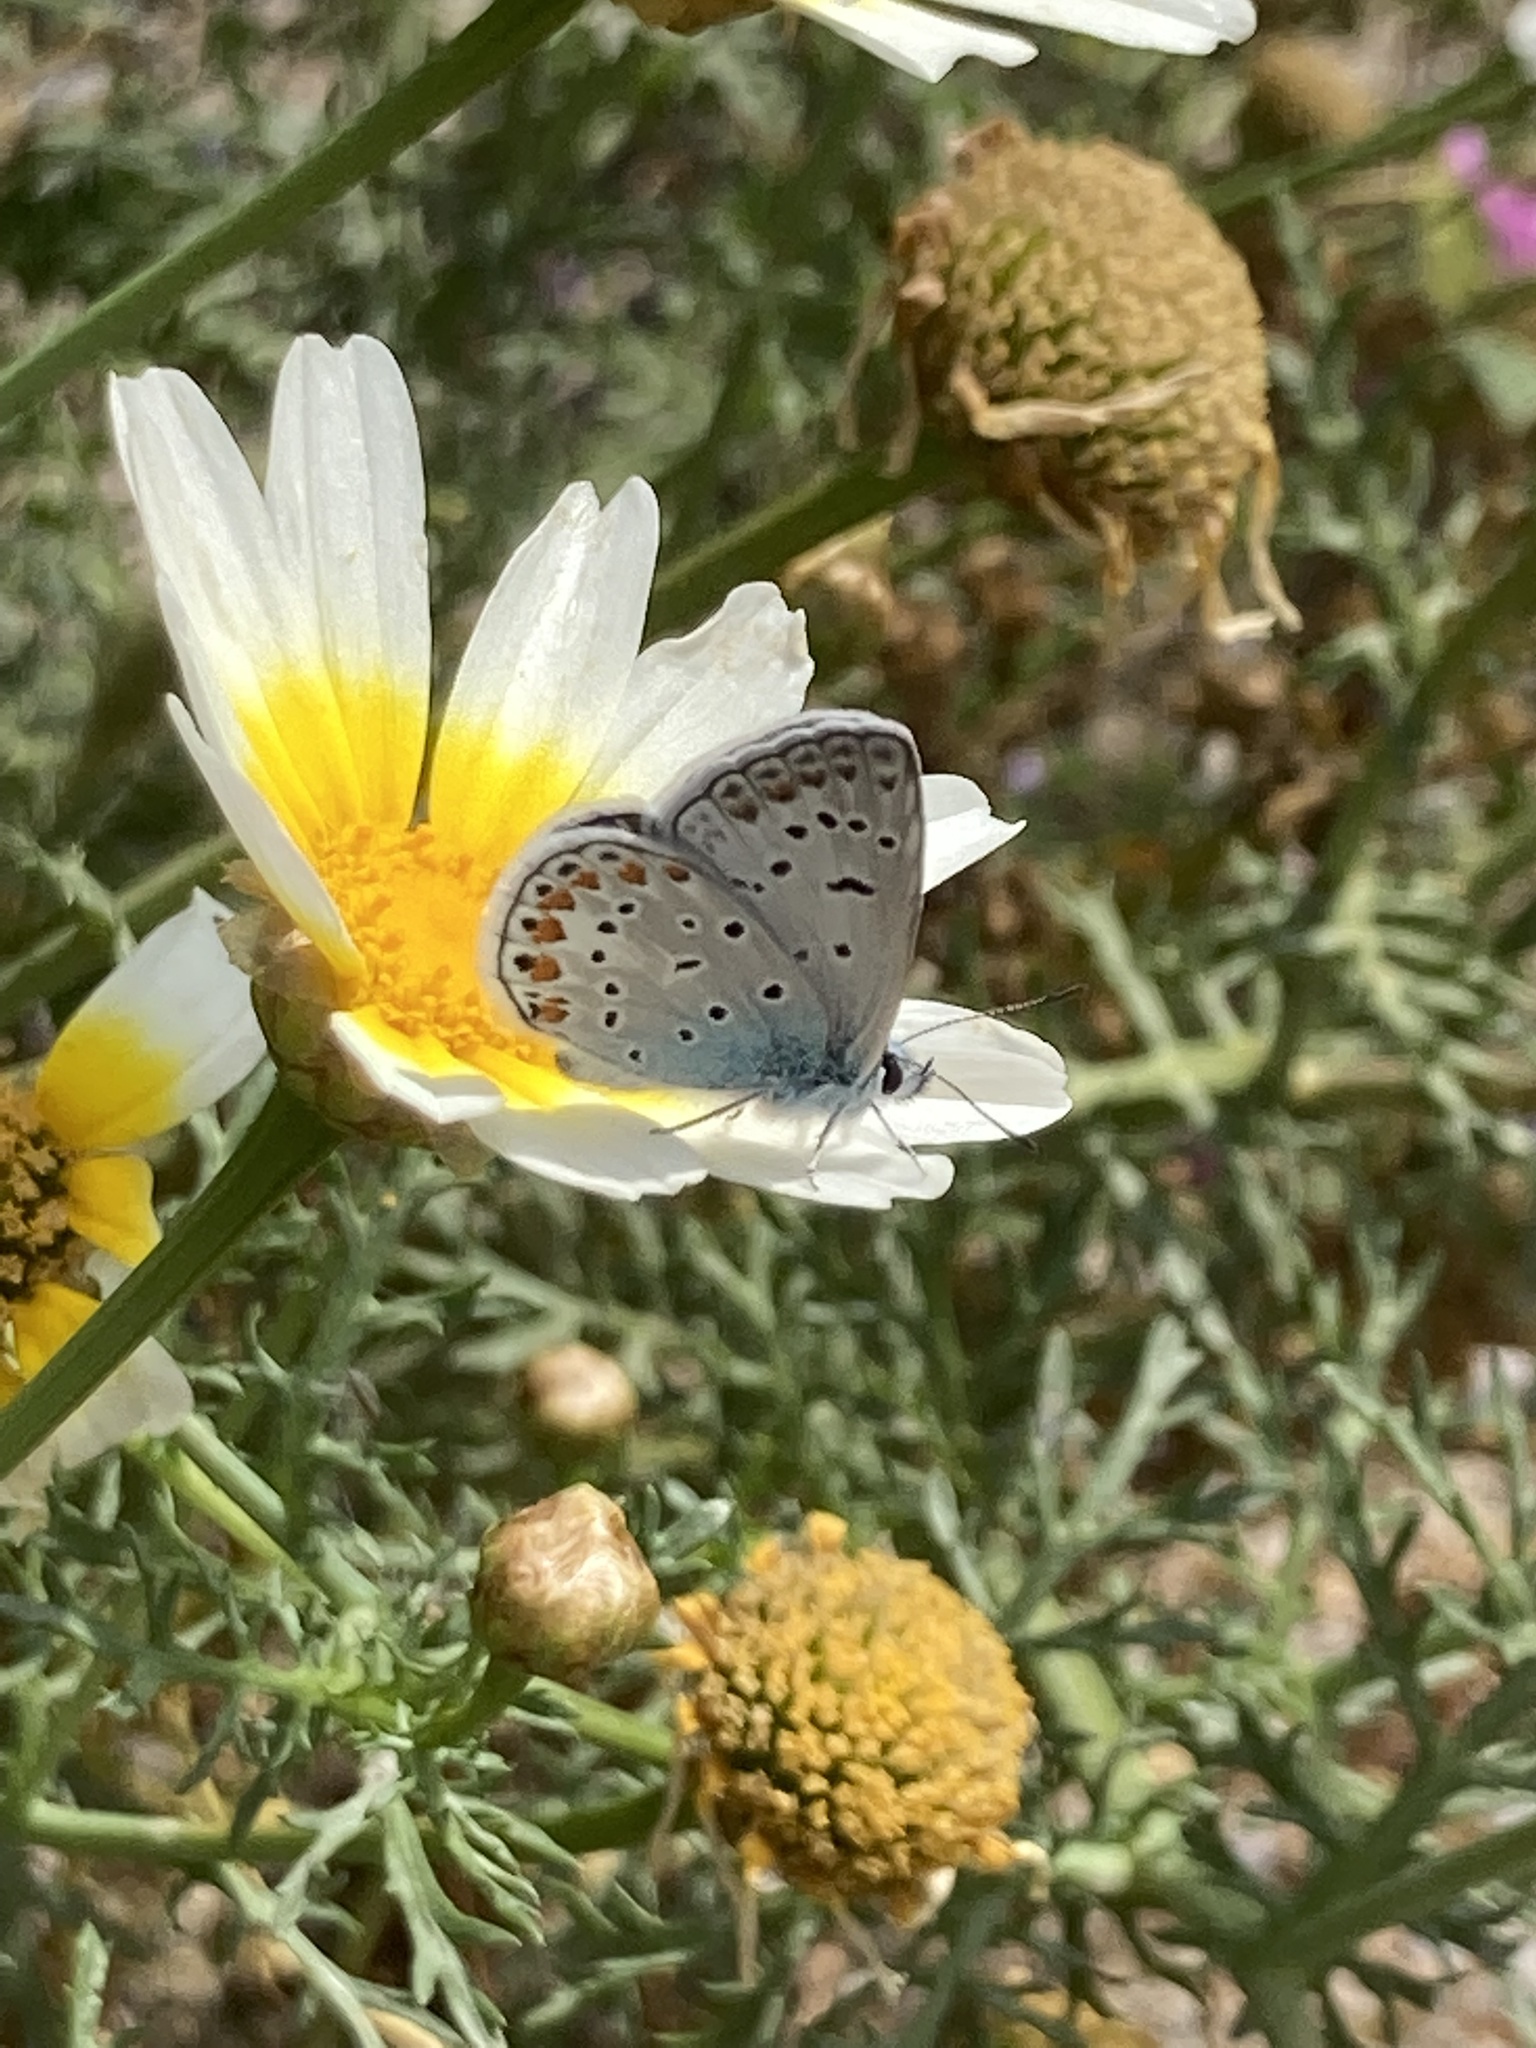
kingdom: Plantae
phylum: Tracheophyta
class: Magnoliopsida
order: Asterales
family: Asteraceae
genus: Glebionis
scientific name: Glebionis coronaria
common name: Crowndaisy
